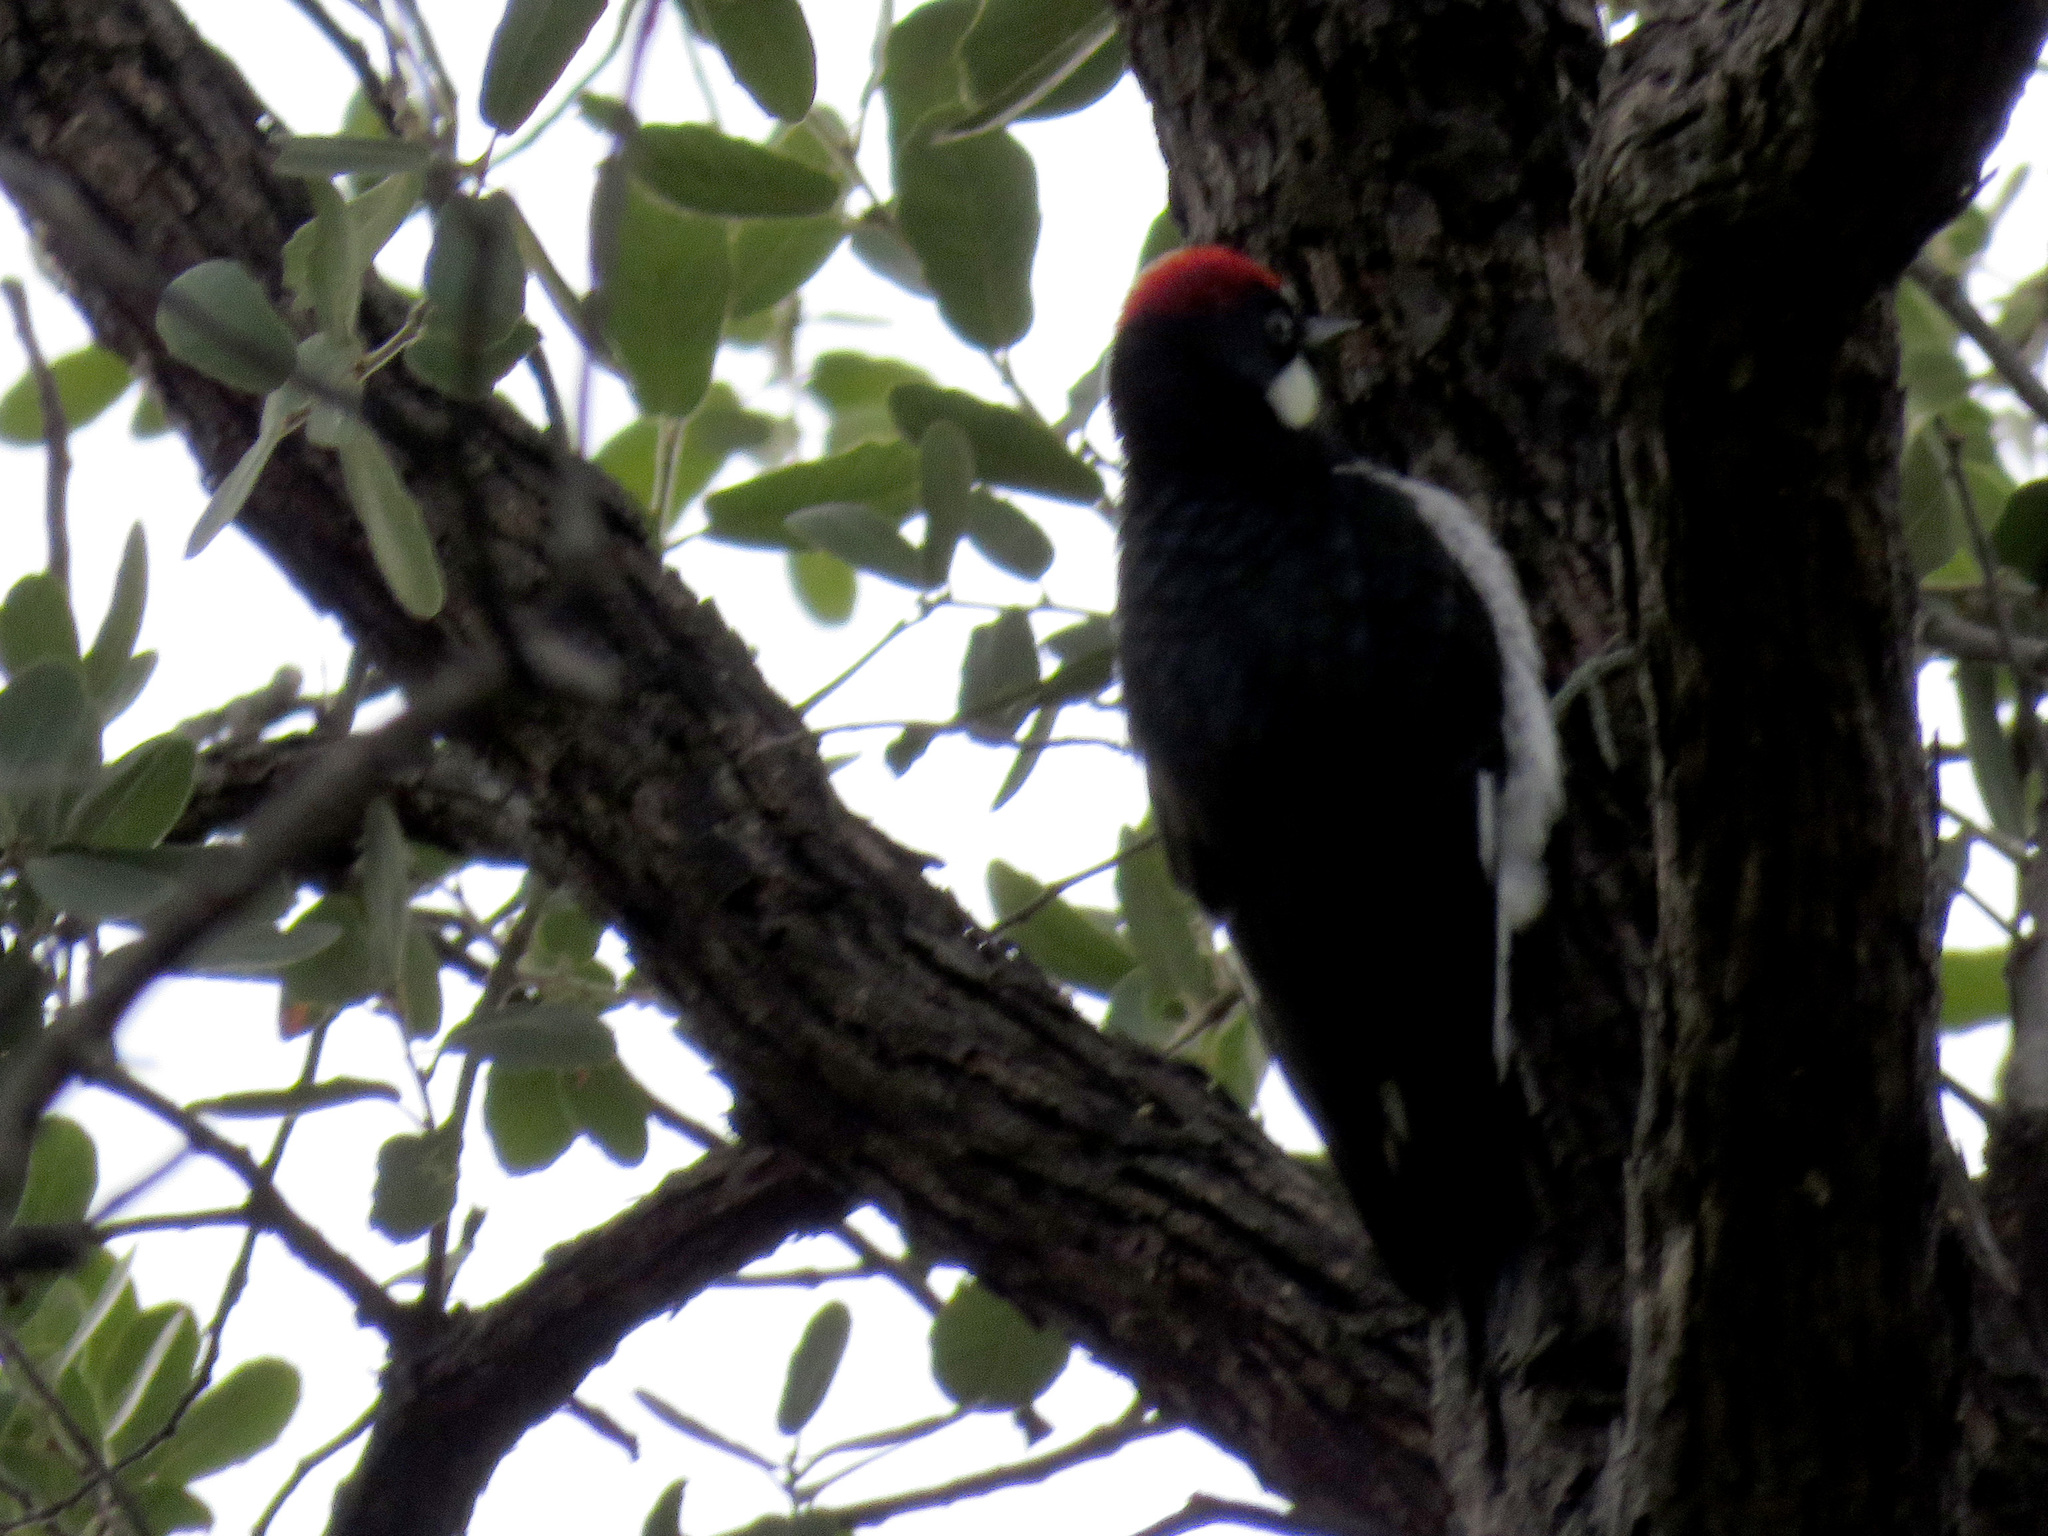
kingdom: Animalia
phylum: Chordata
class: Aves
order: Piciformes
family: Picidae
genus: Melanerpes
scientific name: Melanerpes formicivorus
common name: Acorn woodpecker
